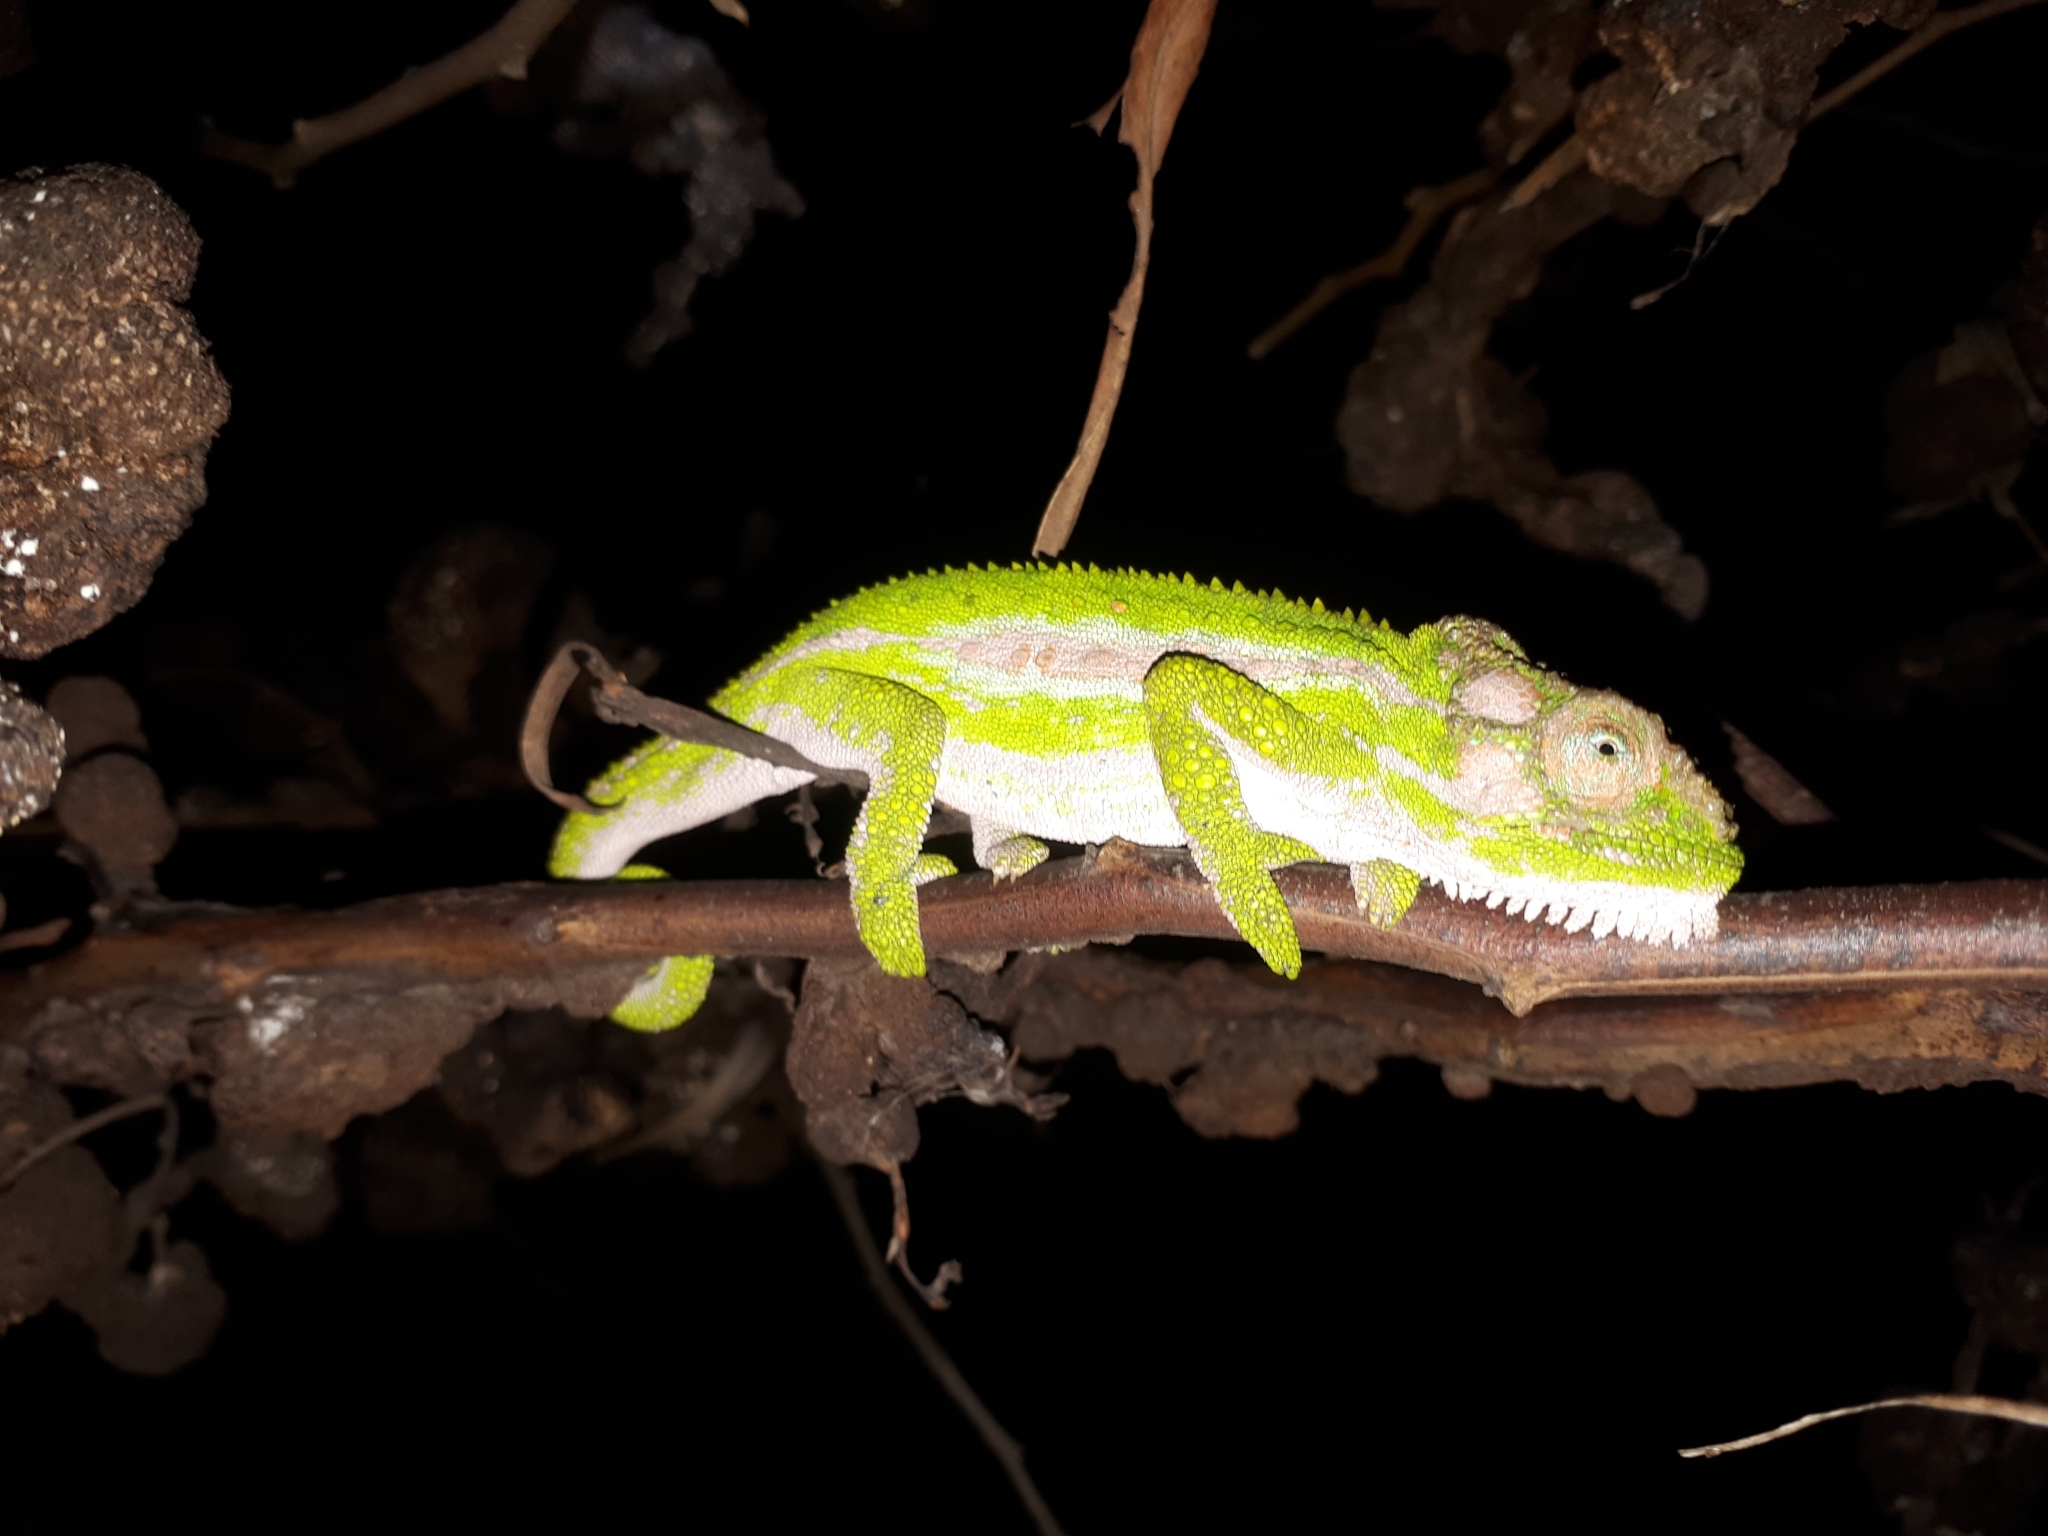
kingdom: Animalia
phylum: Chordata
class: Squamata
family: Chamaeleonidae
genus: Bradypodion
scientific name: Bradypodion pumilum
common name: Cape dwarf chameleon
